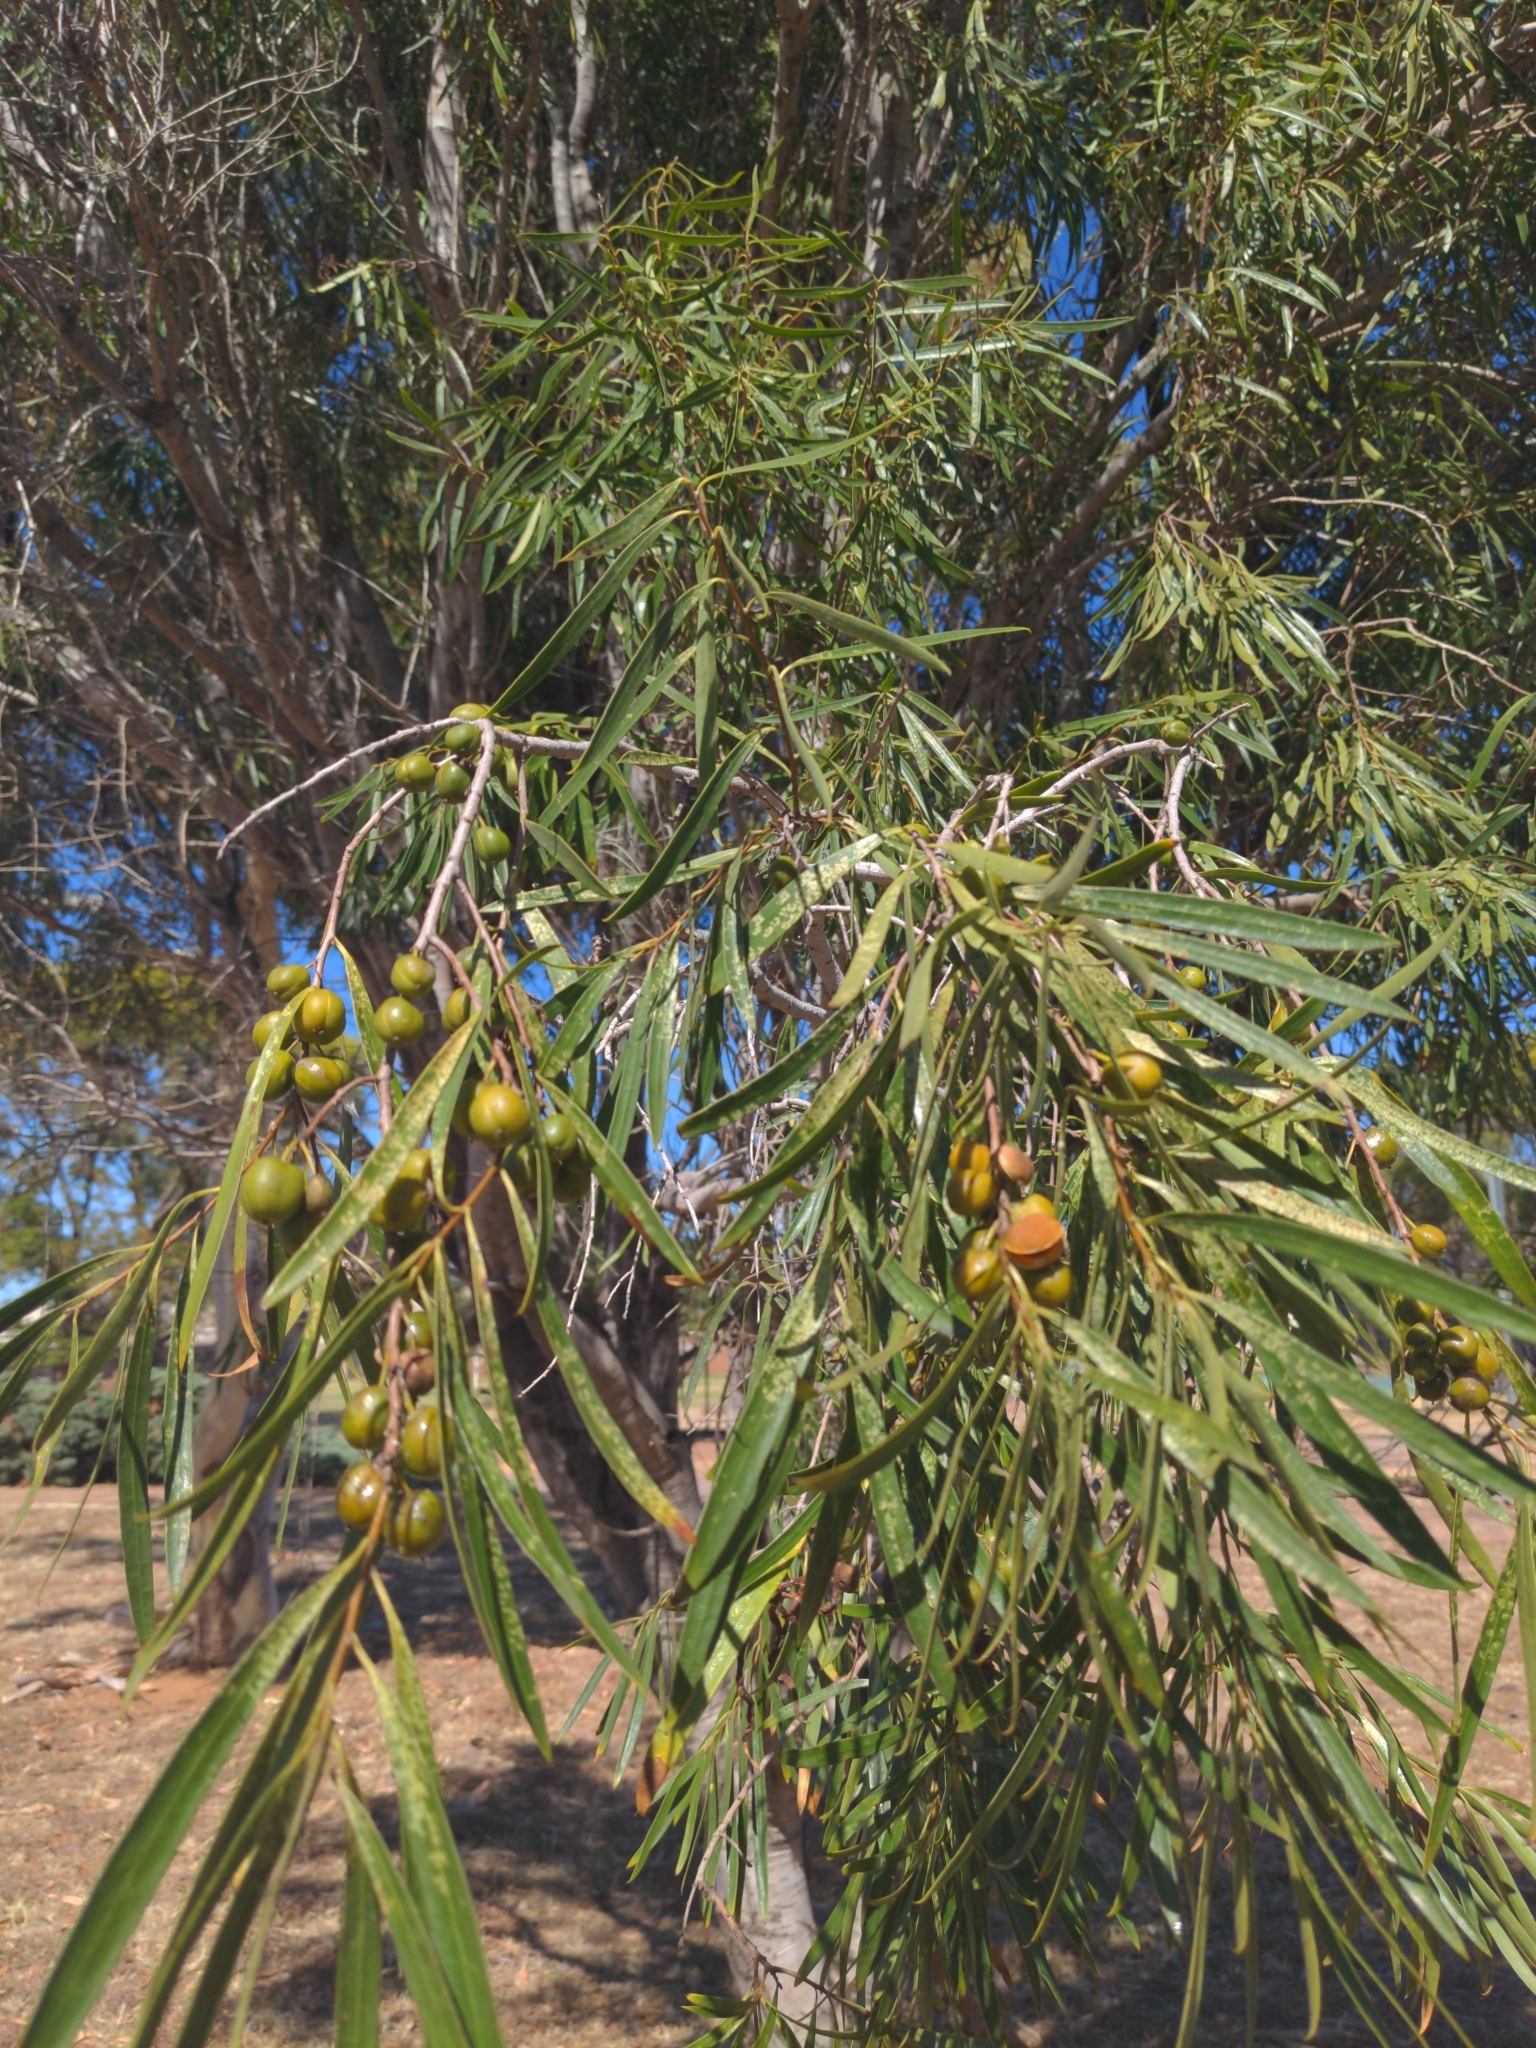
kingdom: Plantae
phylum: Tracheophyta
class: Magnoliopsida
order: Apiales
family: Pittosporaceae
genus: Pittosporum
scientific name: Pittosporum angustifolium
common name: Weeping pittosporum
